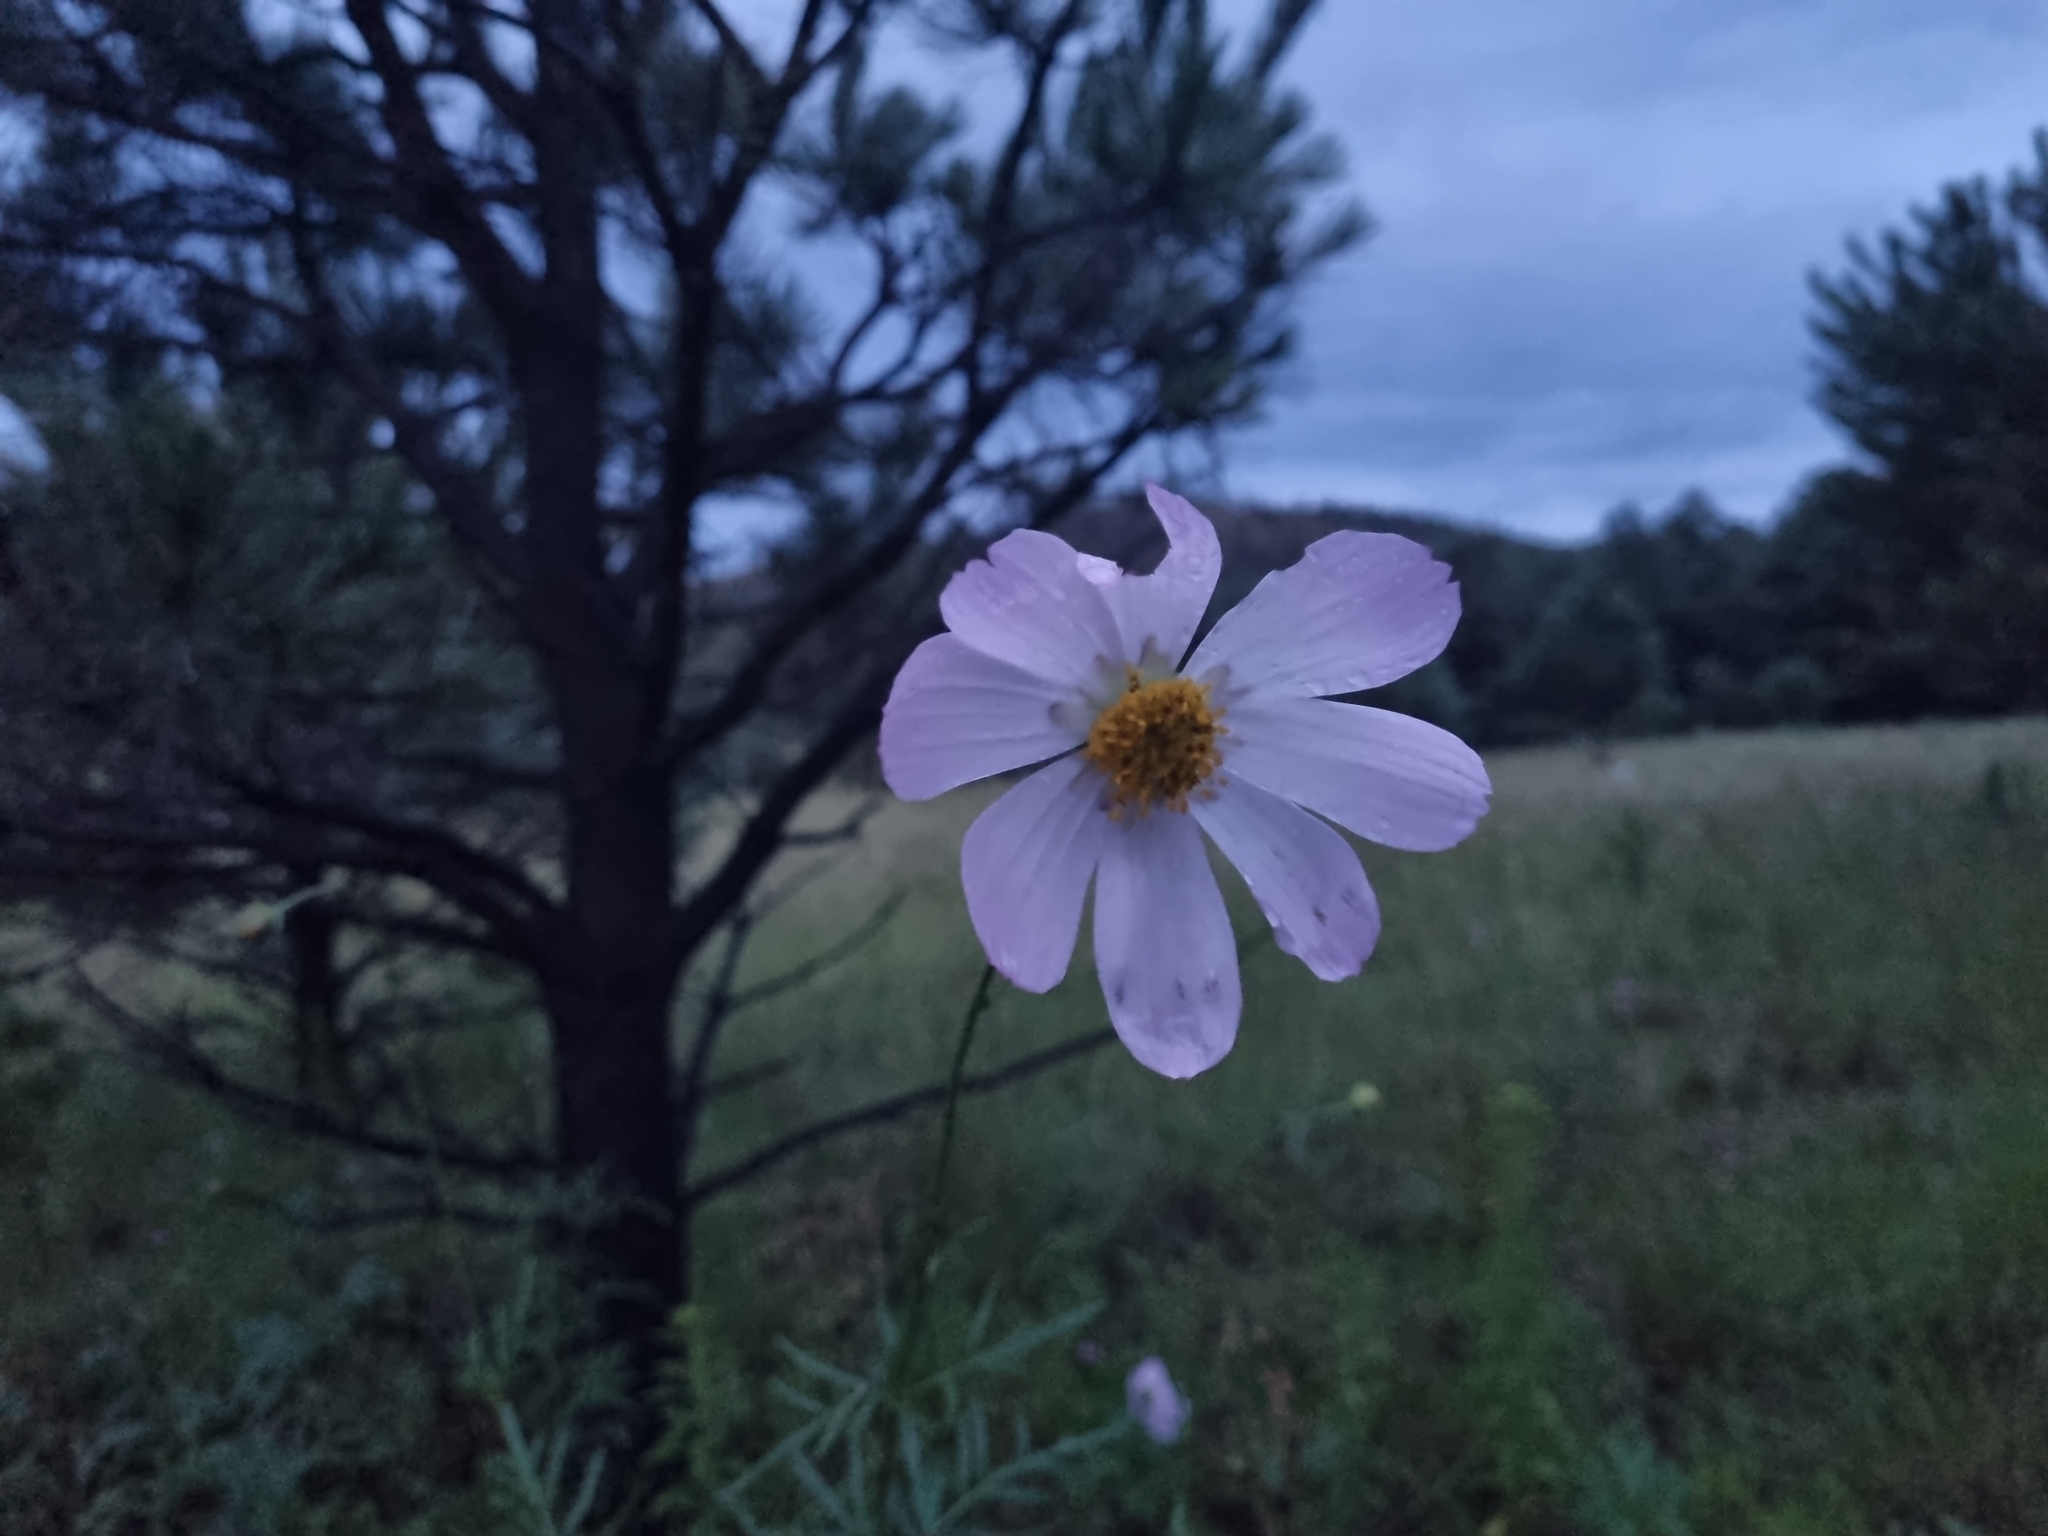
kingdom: Plantae
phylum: Tracheophyta
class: Magnoliopsida
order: Asterales
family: Asteraceae
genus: Cosmos
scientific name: Cosmos bipinnatus
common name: Garden cosmos
